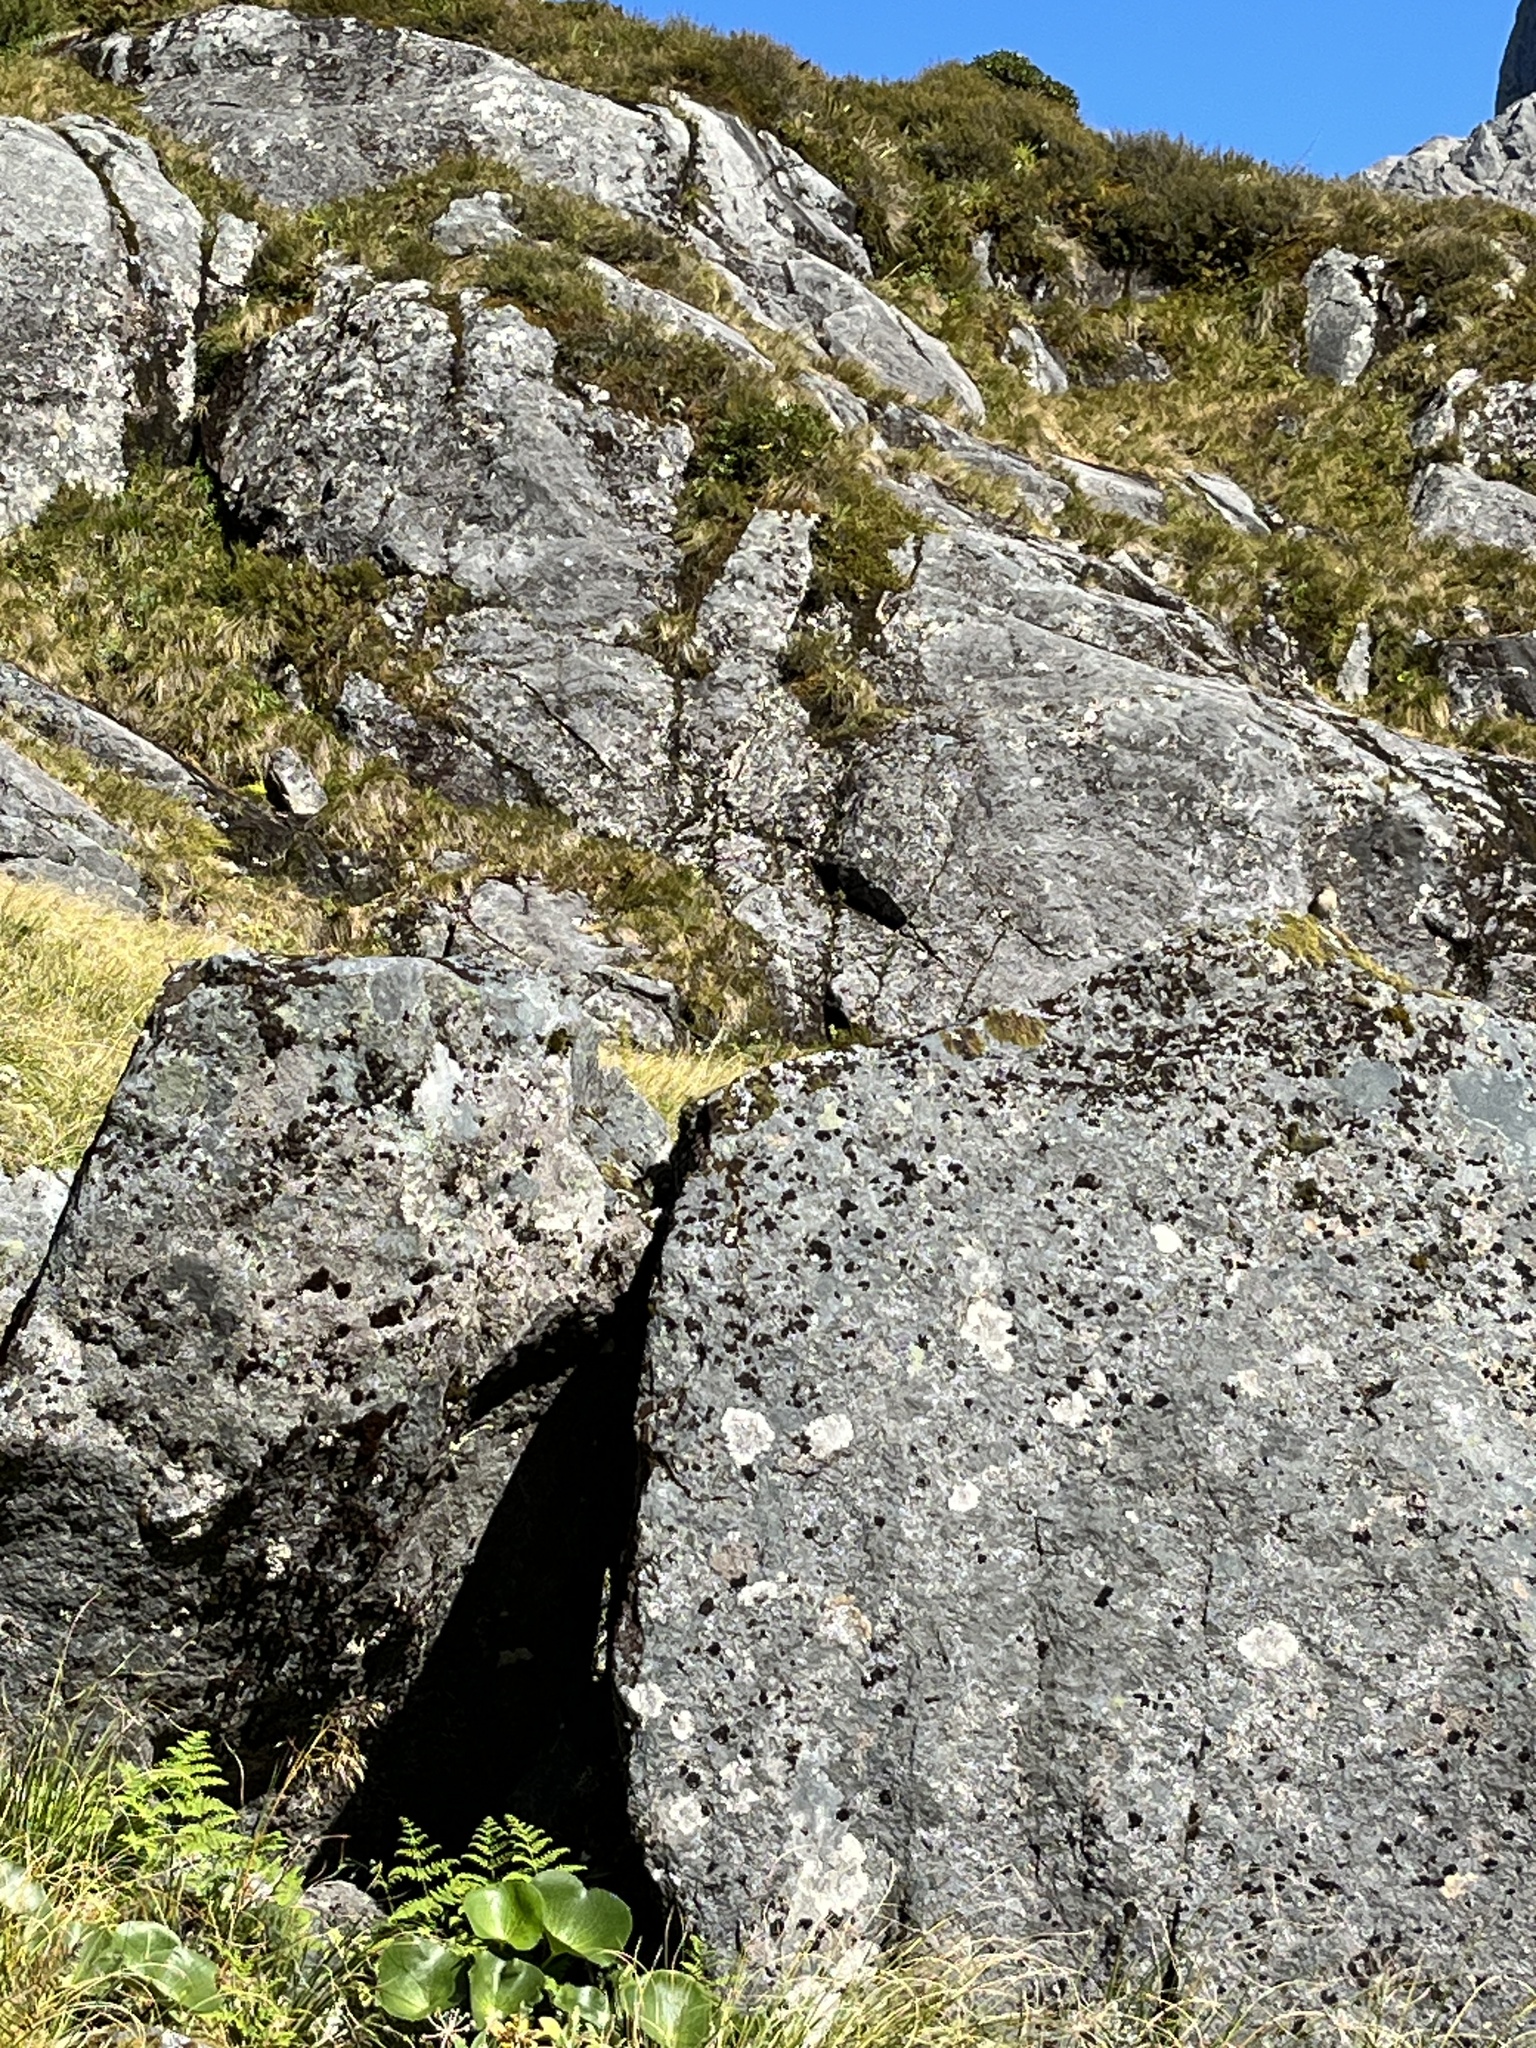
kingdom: Animalia
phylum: Chordata
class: Aves
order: Passeriformes
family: Acanthisittidae
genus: Xenicus
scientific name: Xenicus gilviventris
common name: New zealand rockwren
